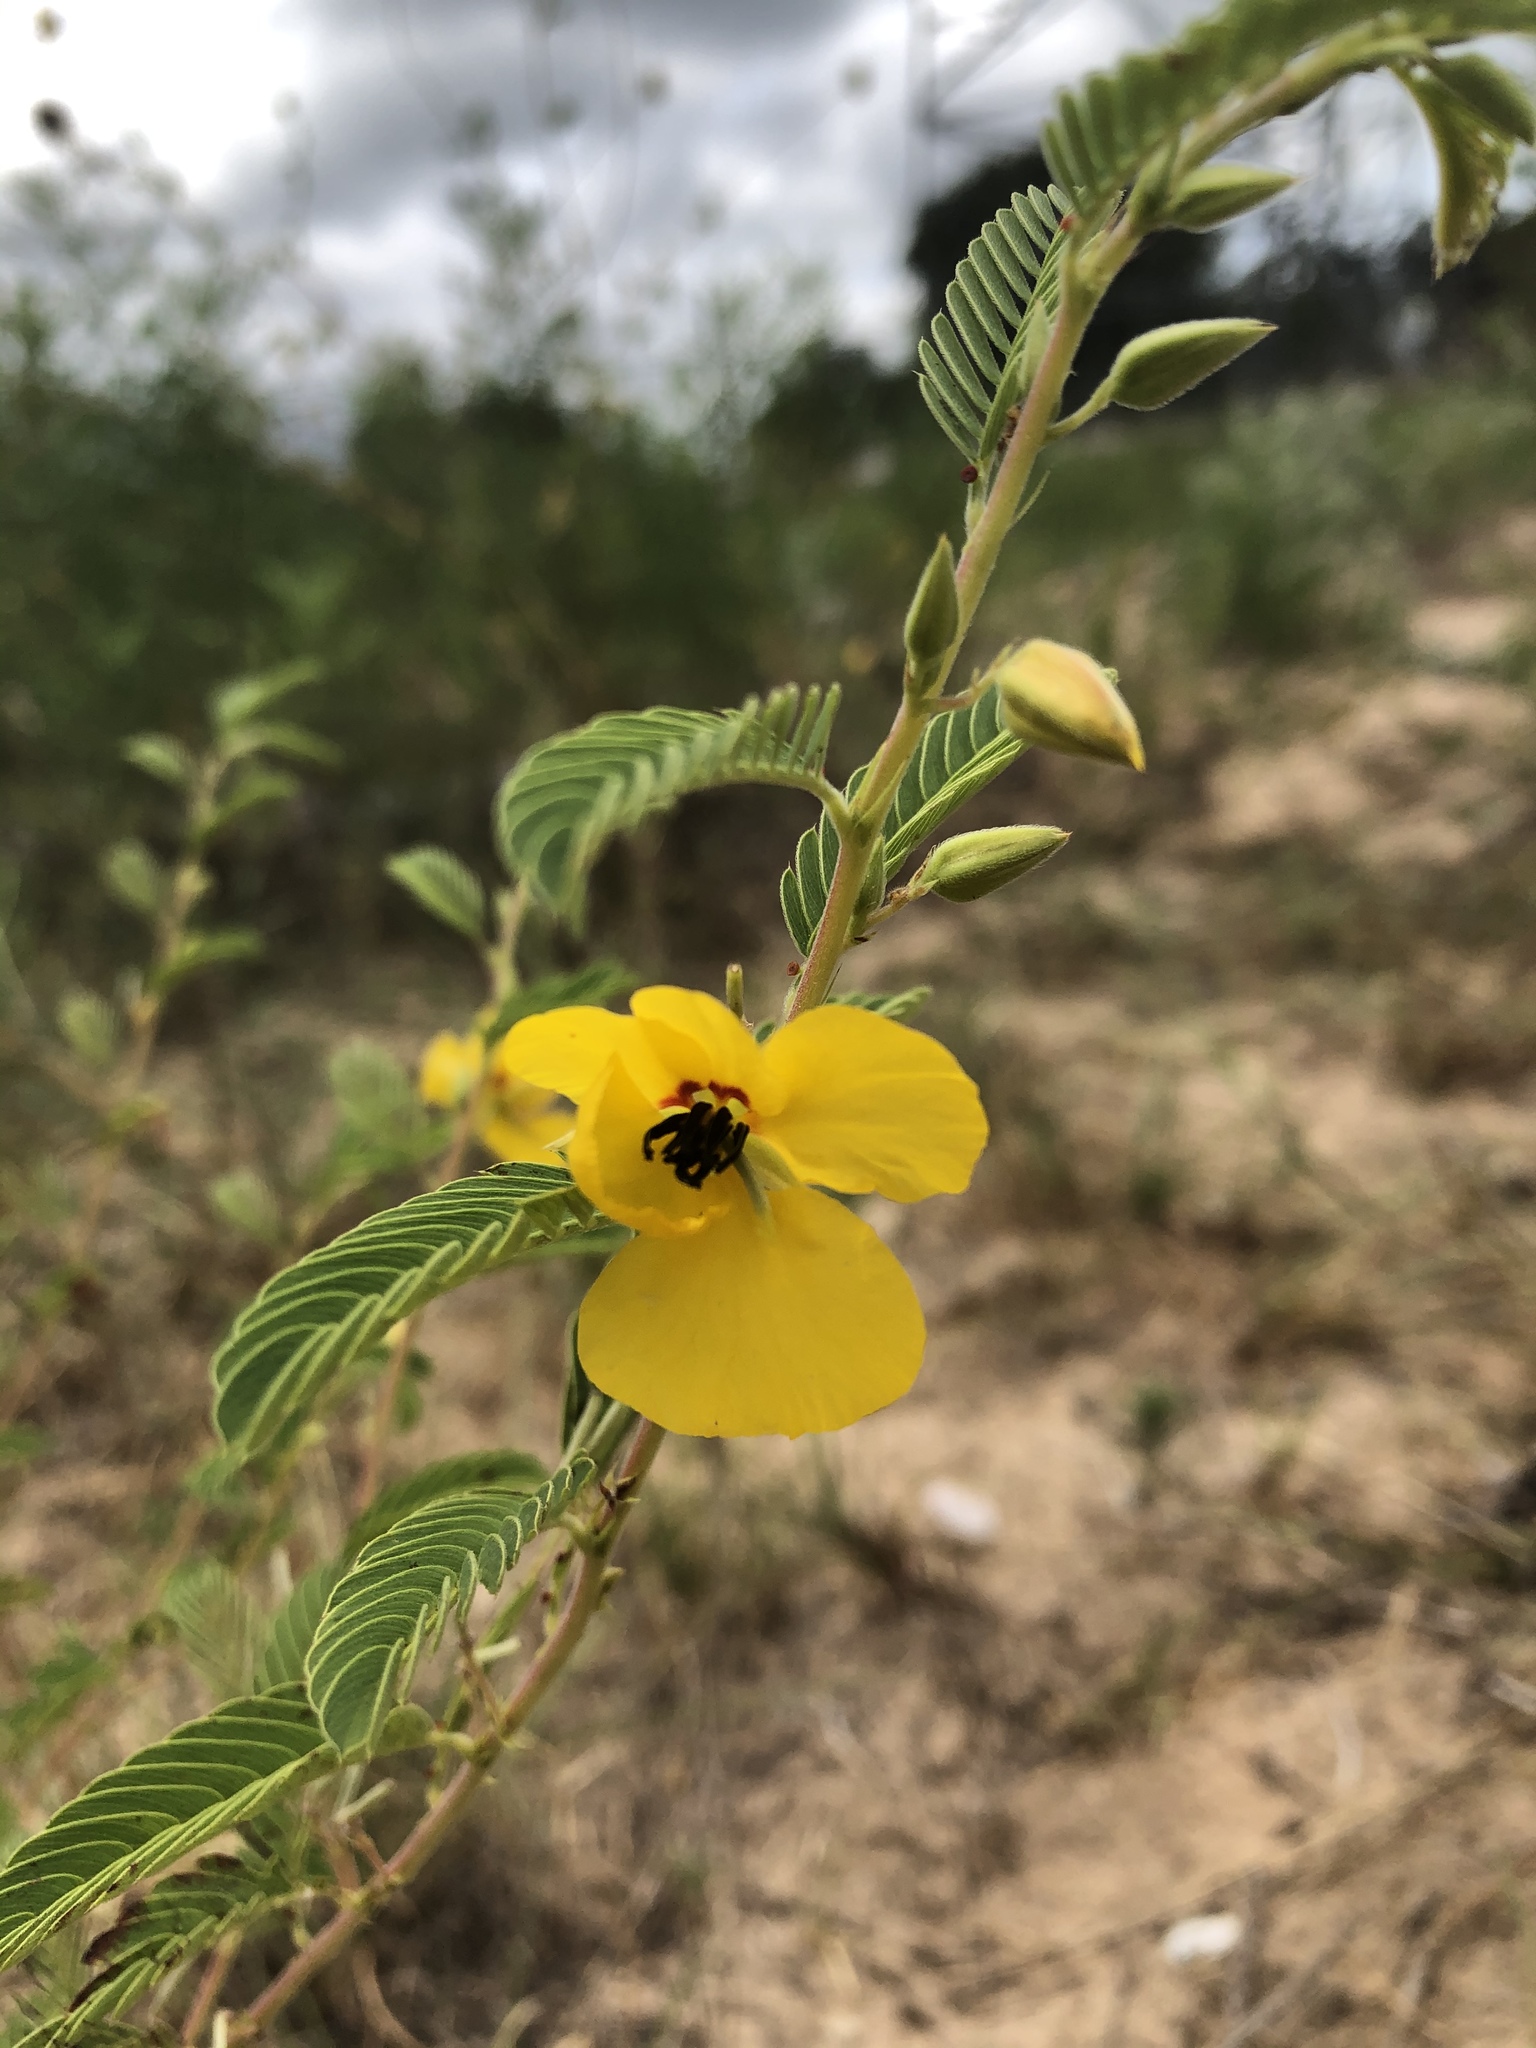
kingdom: Plantae
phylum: Tracheophyta
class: Magnoliopsida
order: Fabales
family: Fabaceae
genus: Chamaecrista
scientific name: Chamaecrista fasciculata
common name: Golden cassia
